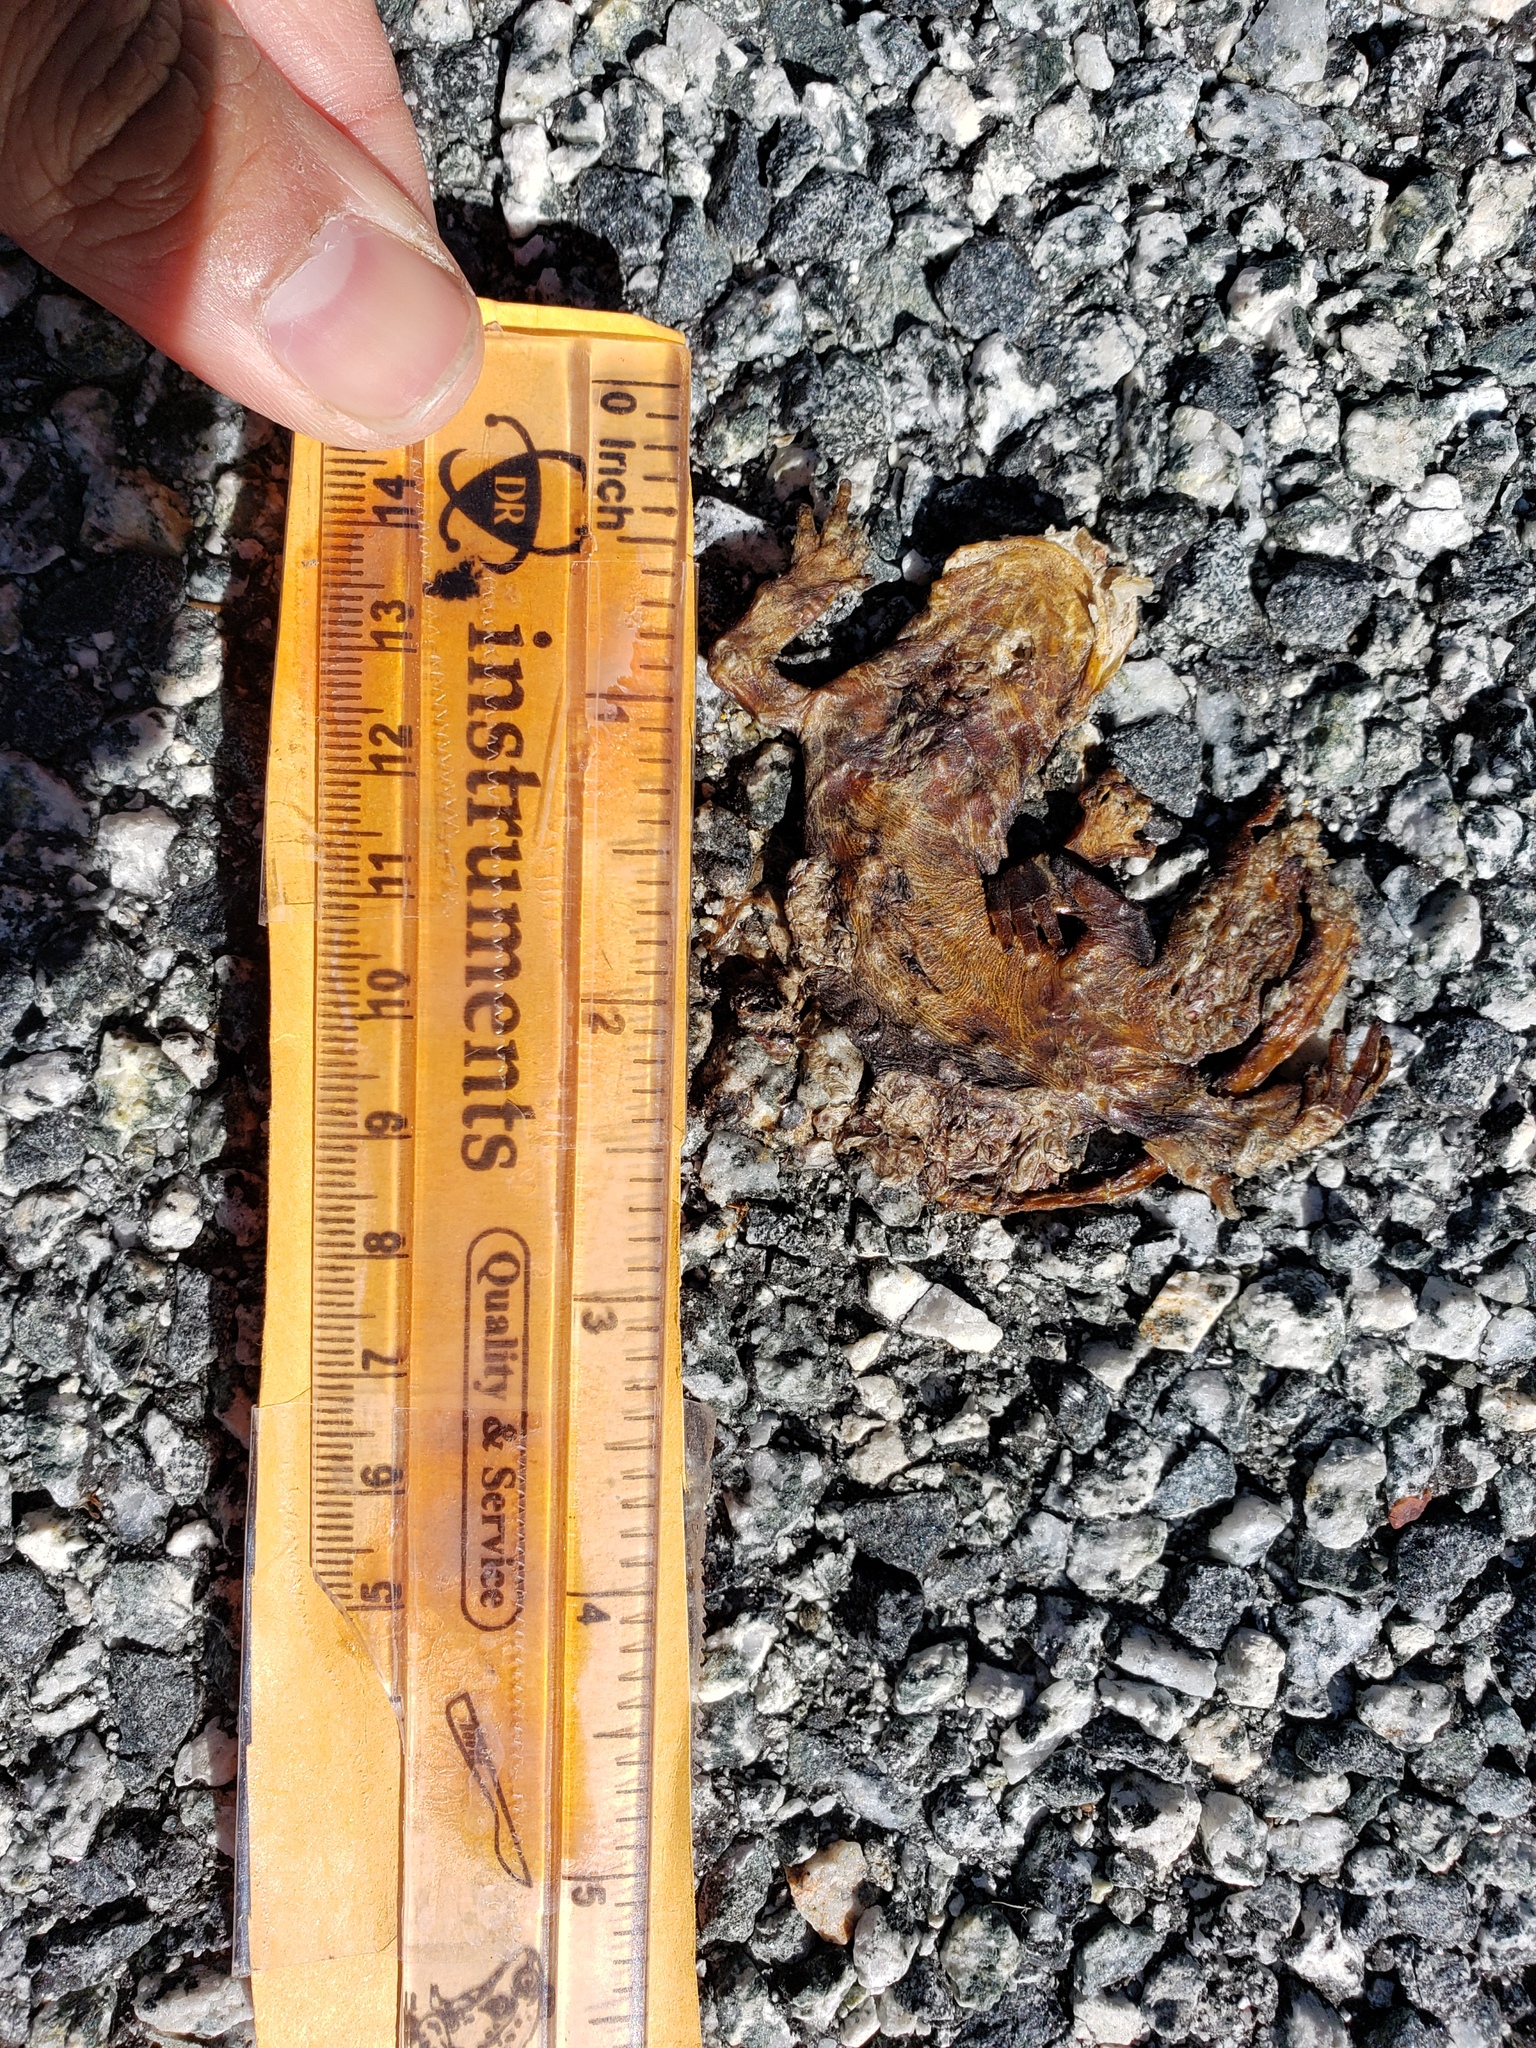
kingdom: Animalia
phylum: Chordata
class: Amphibia
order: Caudata
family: Salamandridae
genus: Taricha
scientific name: Taricha
